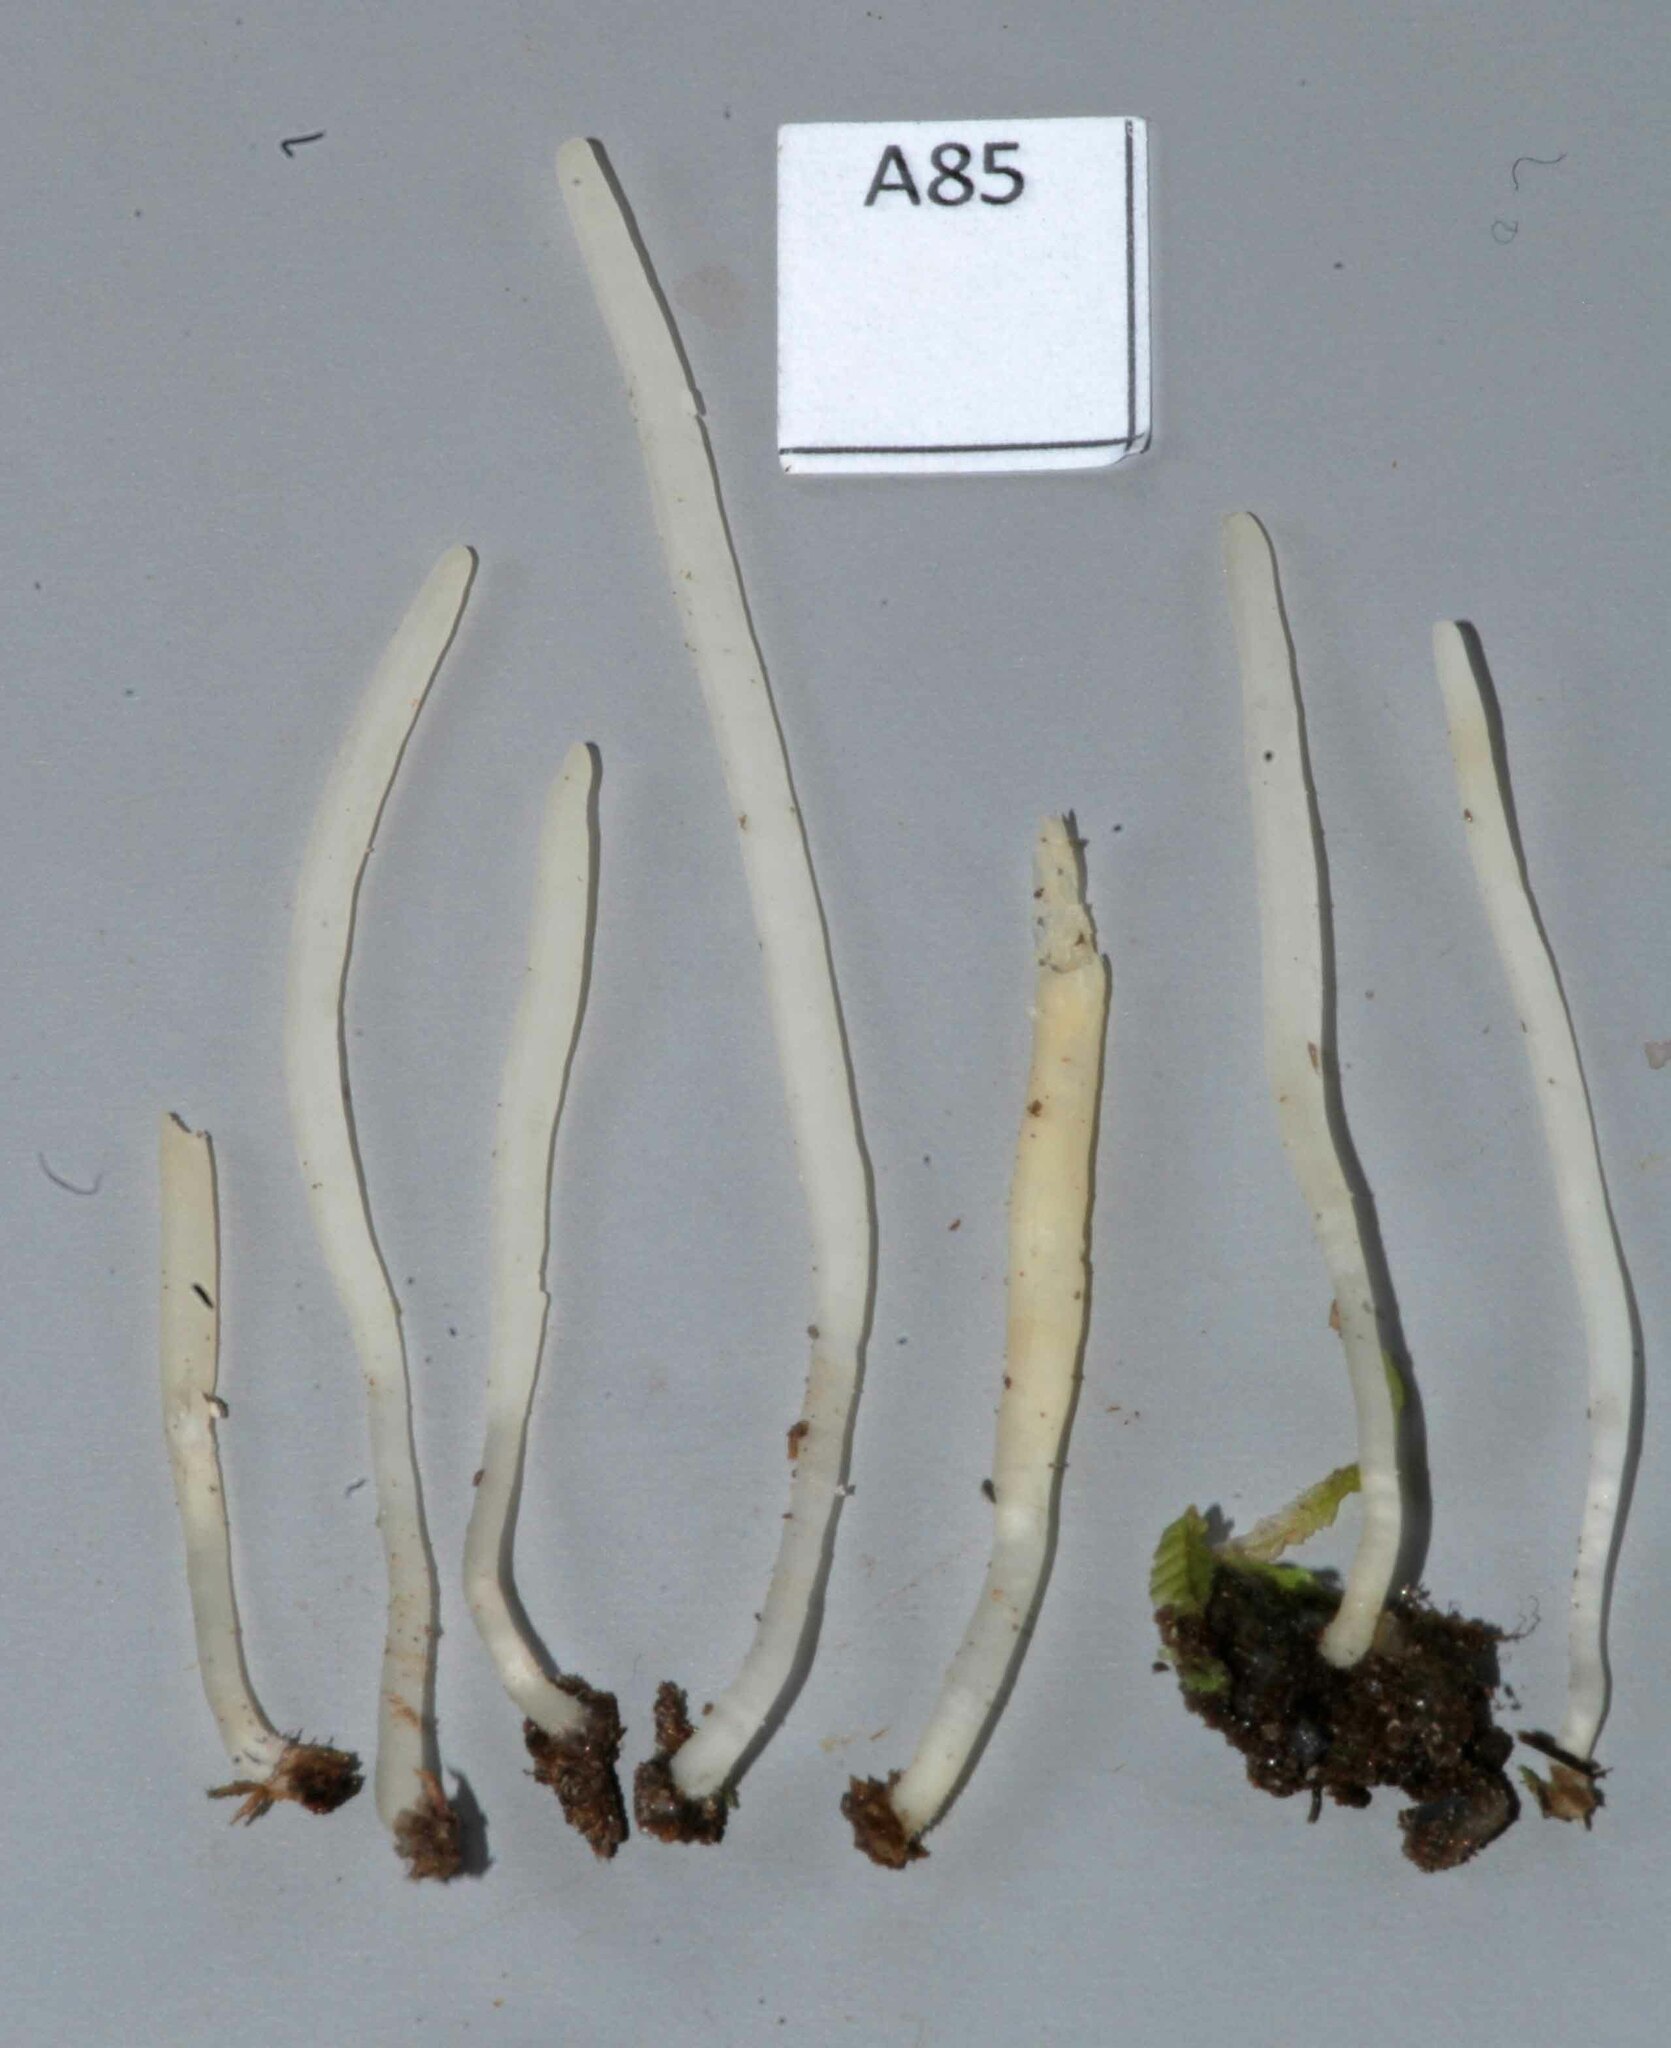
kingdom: Fungi
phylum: Basidiomycota
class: Agaricomycetes
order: Agaricales
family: Clavariaceae
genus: Clavaria
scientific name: Clavaria redoleoalii
